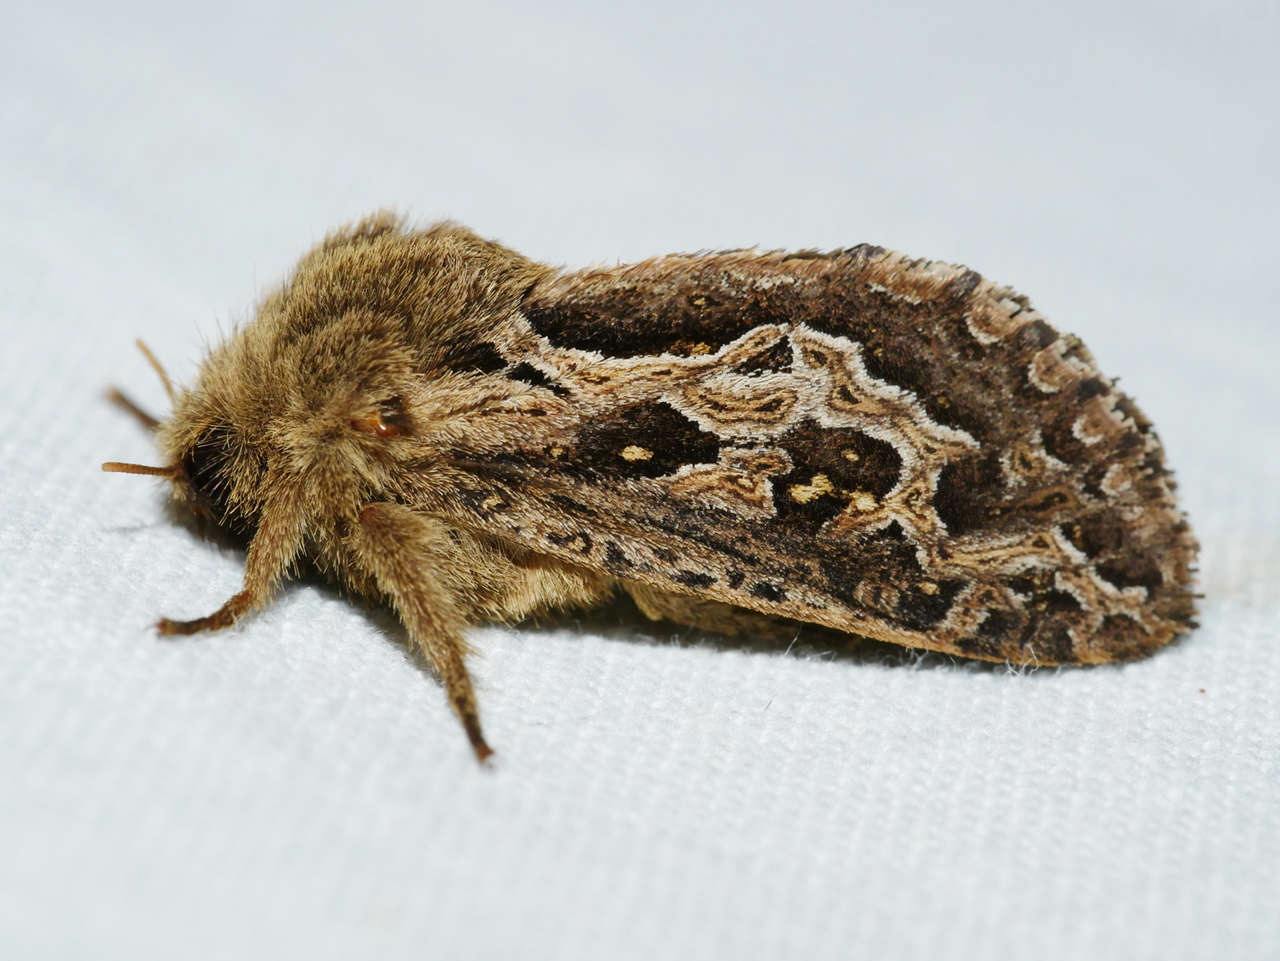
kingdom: Animalia
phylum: Arthropoda
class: Insecta
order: Lepidoptera
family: Hepialidae
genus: Oncopera
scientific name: Oncopera intricoides
